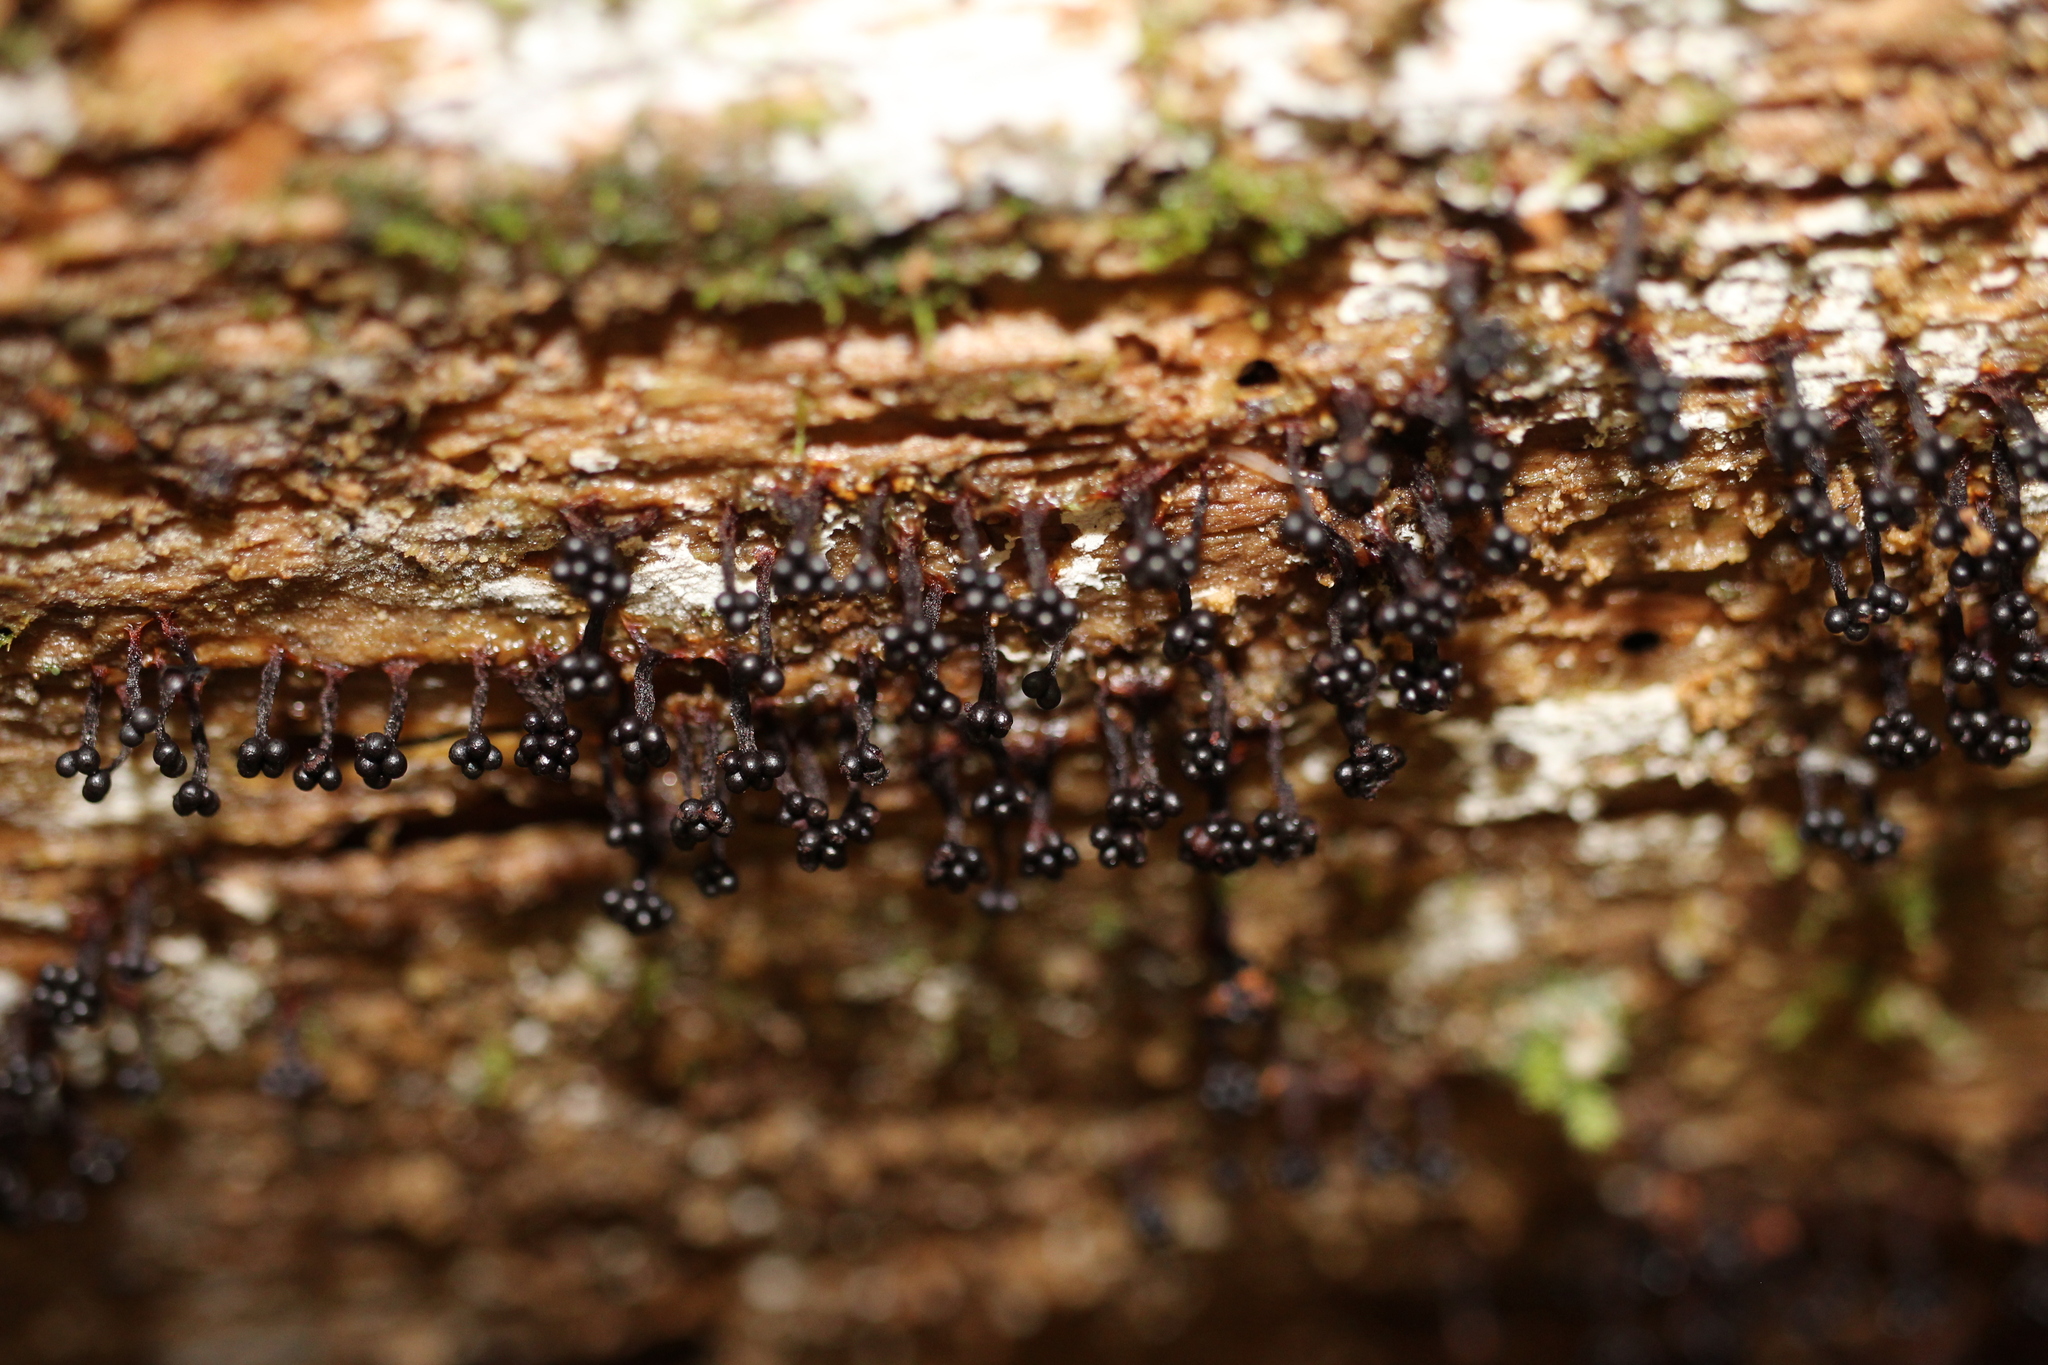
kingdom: Protozoa
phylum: Mycetozoa
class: Myxomycetes
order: Trichiales
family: Trichiaceae
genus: Metatrichia
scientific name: Metatrichia vesparia
